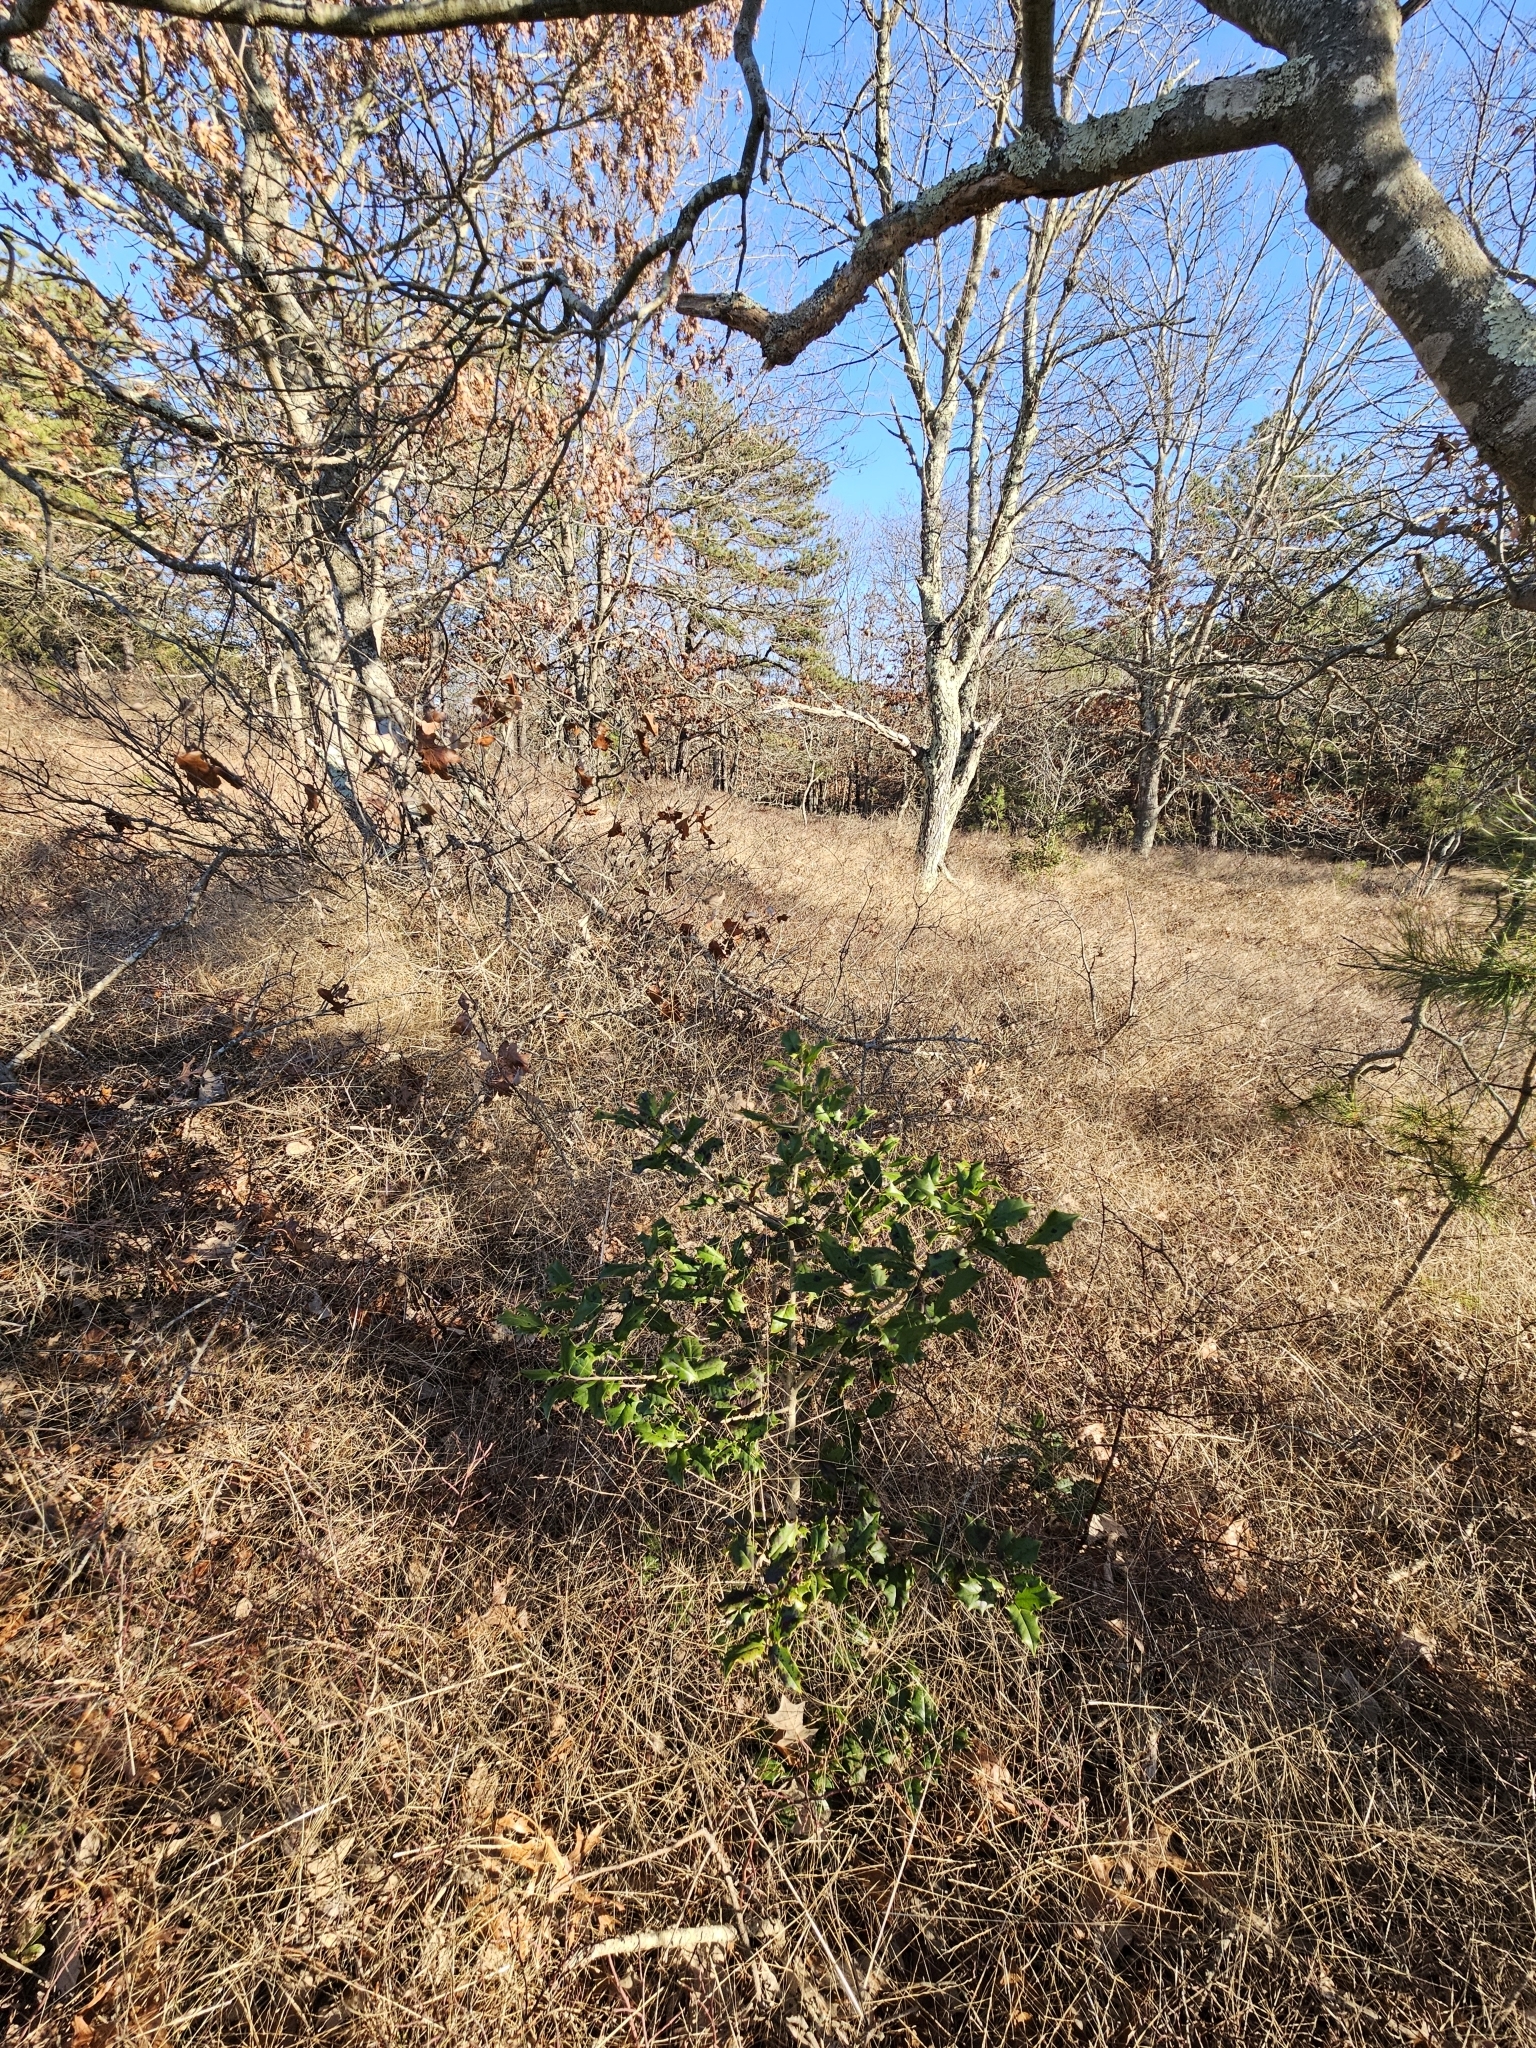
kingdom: Plantae
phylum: Tracheophyta
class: Magnoliopsida
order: Aquifoliales
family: Aquifoliaceae
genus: Ilex
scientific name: Ilex opaca
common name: American holly
